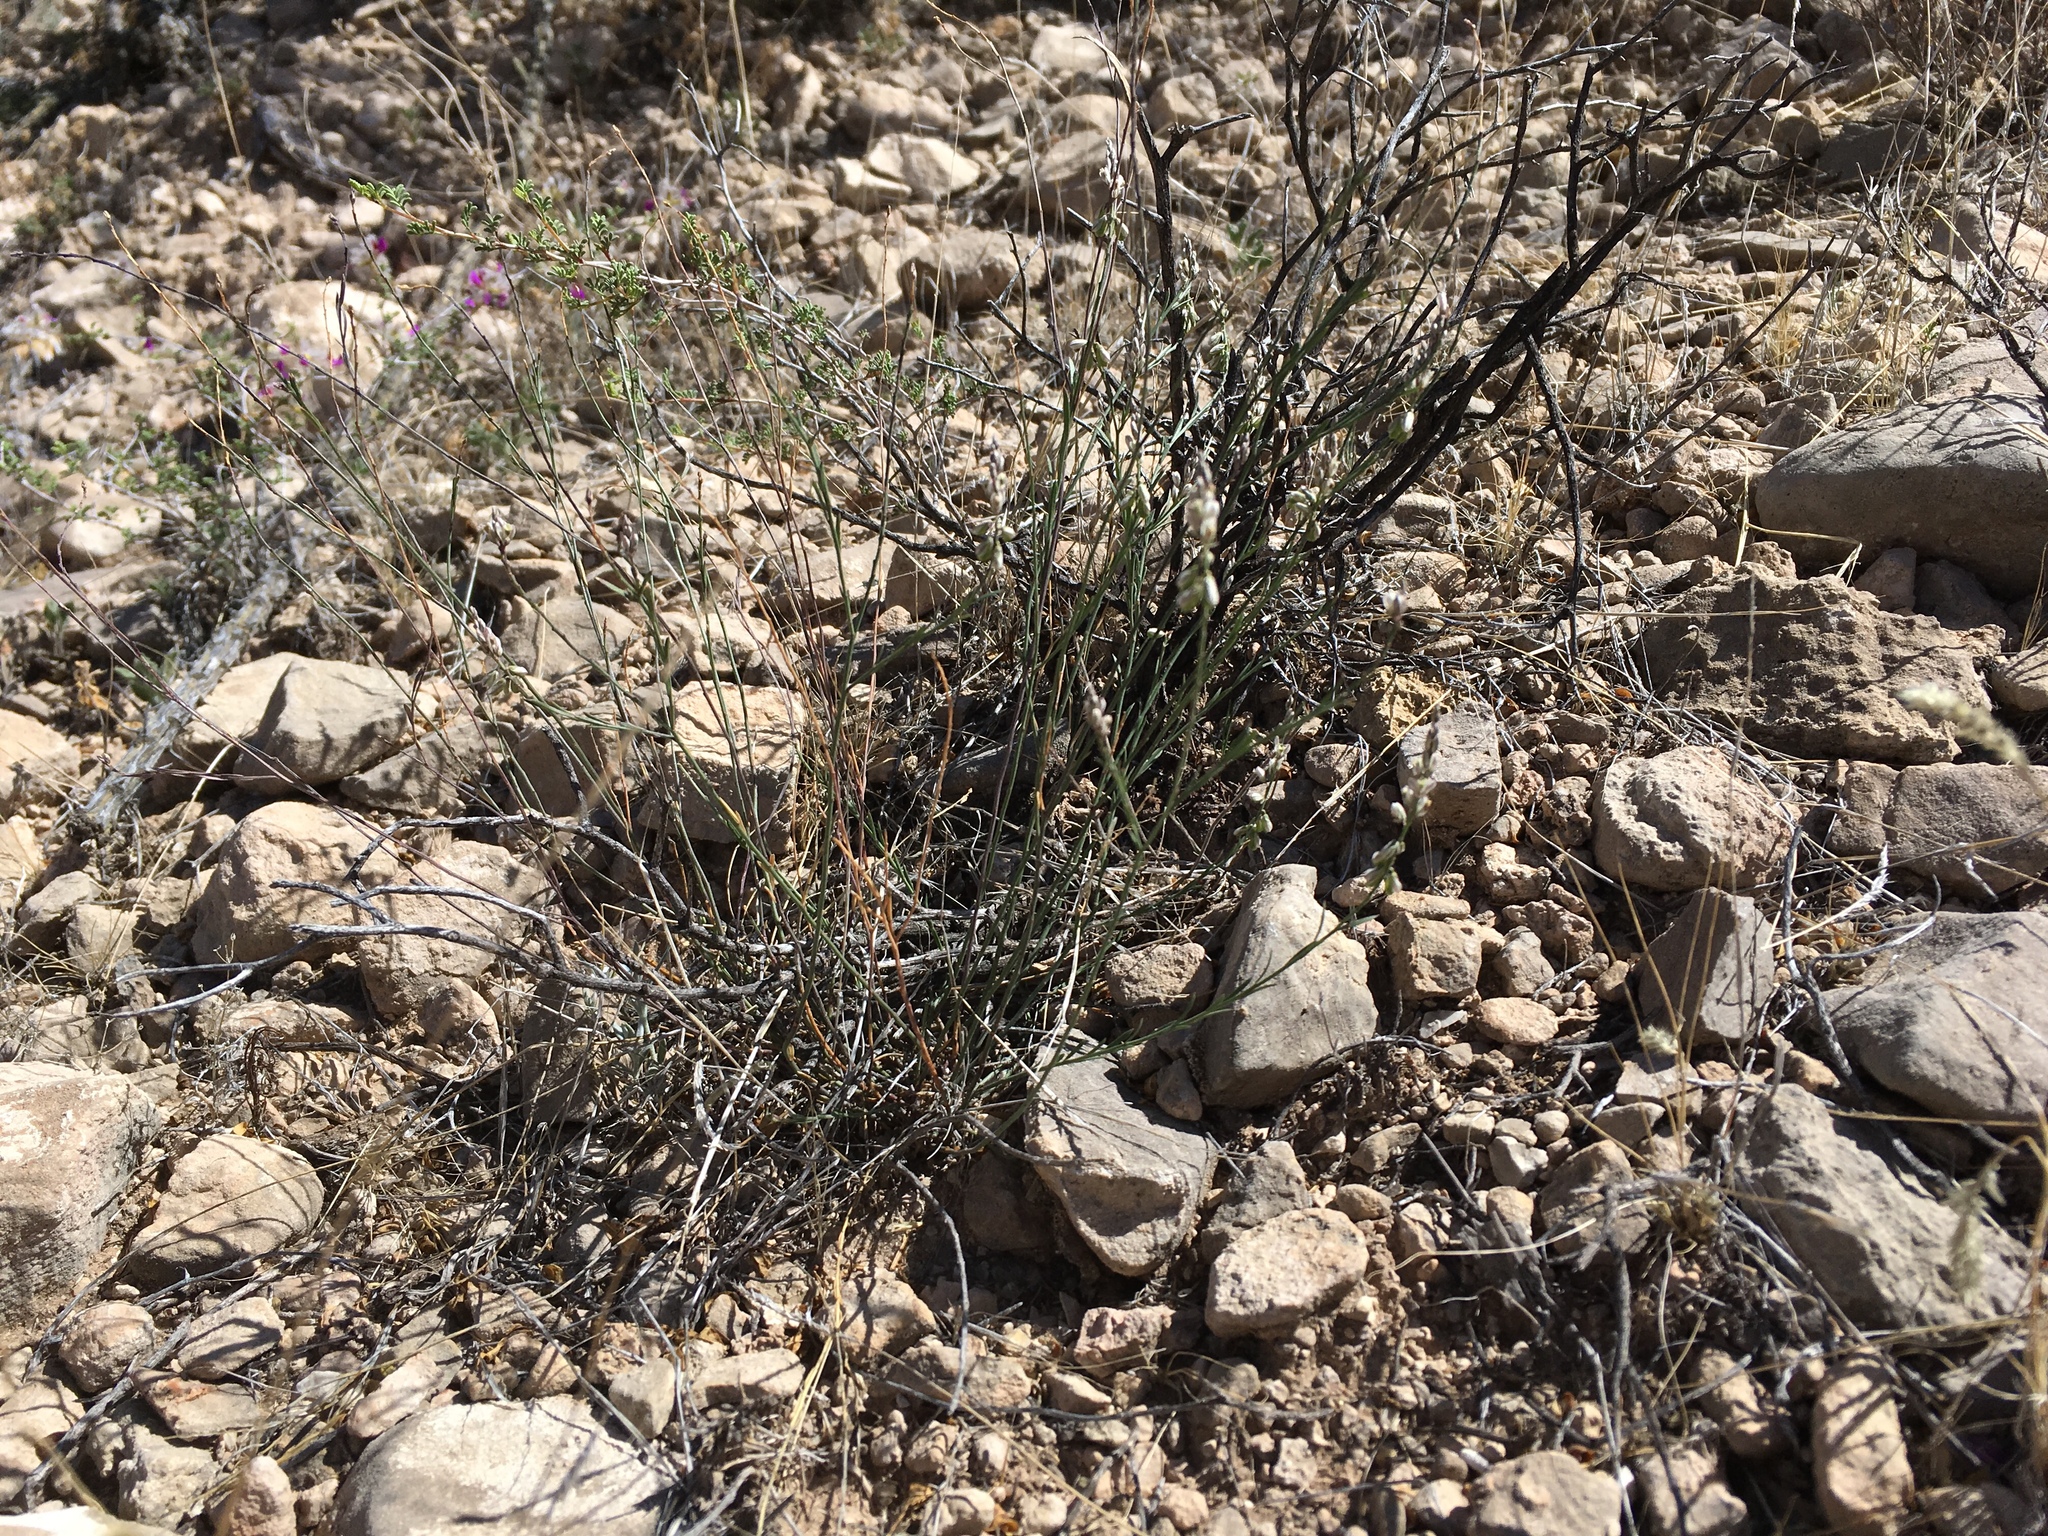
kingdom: Plantae
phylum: Tracheophyta
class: Magnoliopsida
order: Fabales
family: Polygalaceae
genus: Polygala
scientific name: Polygala scoparioides
